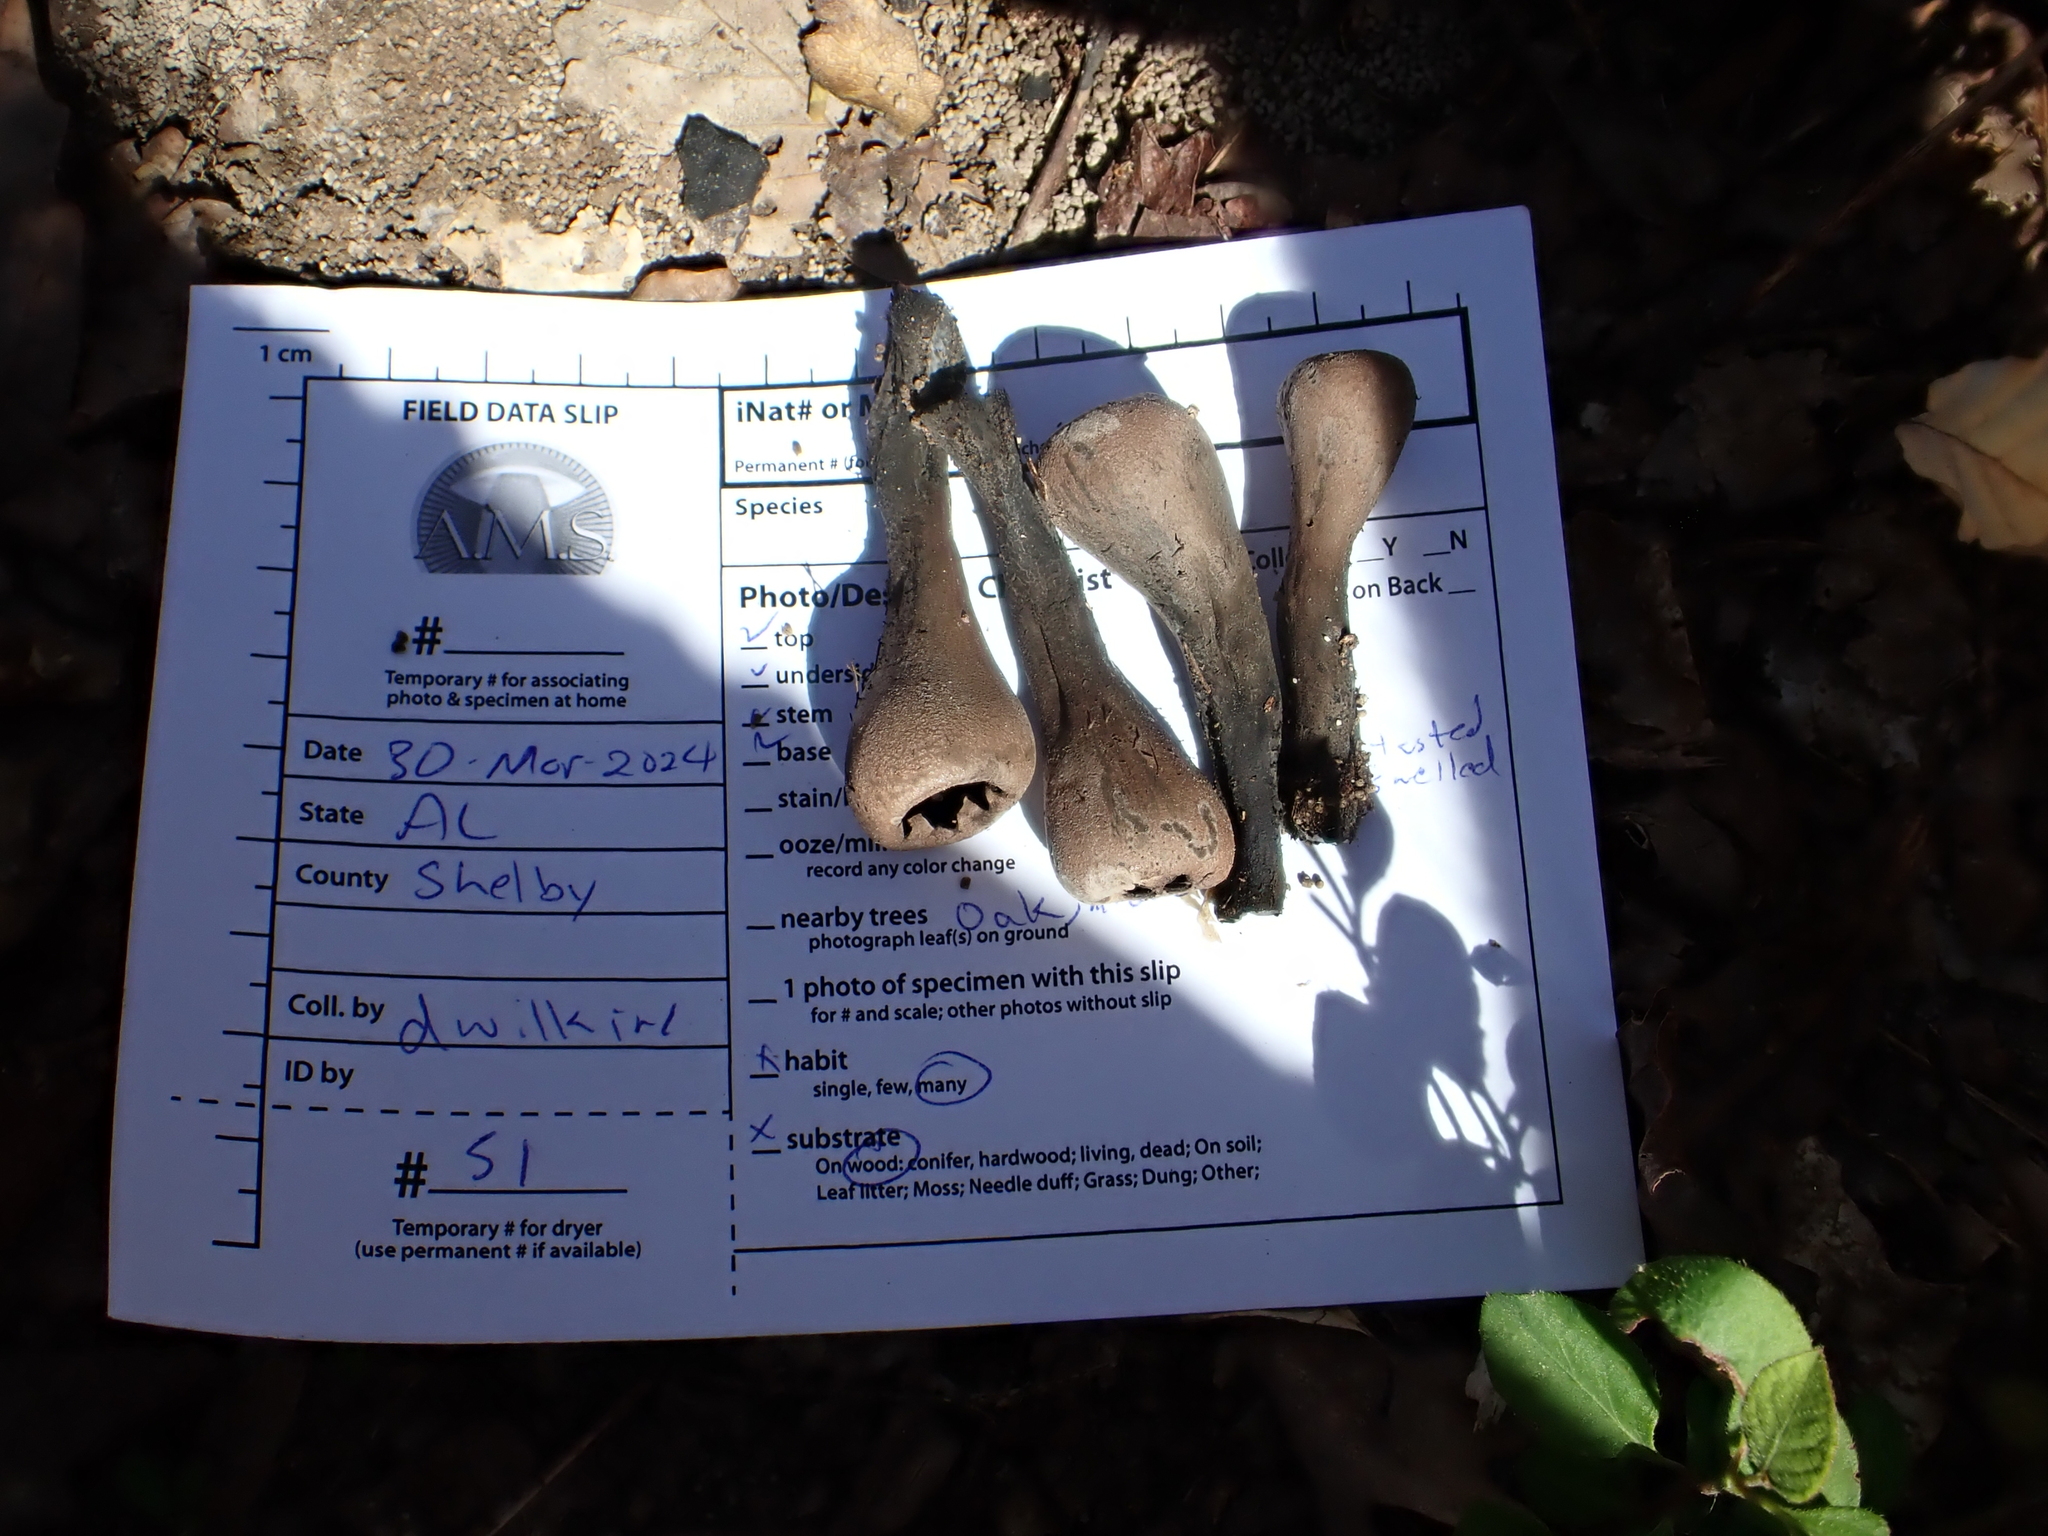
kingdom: Fungi
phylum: Ascomycota
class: Pezizomycetes
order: Pezizales
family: Sarcosomataceae
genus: Urnula
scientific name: Urnula craterium
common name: Devil's urn
